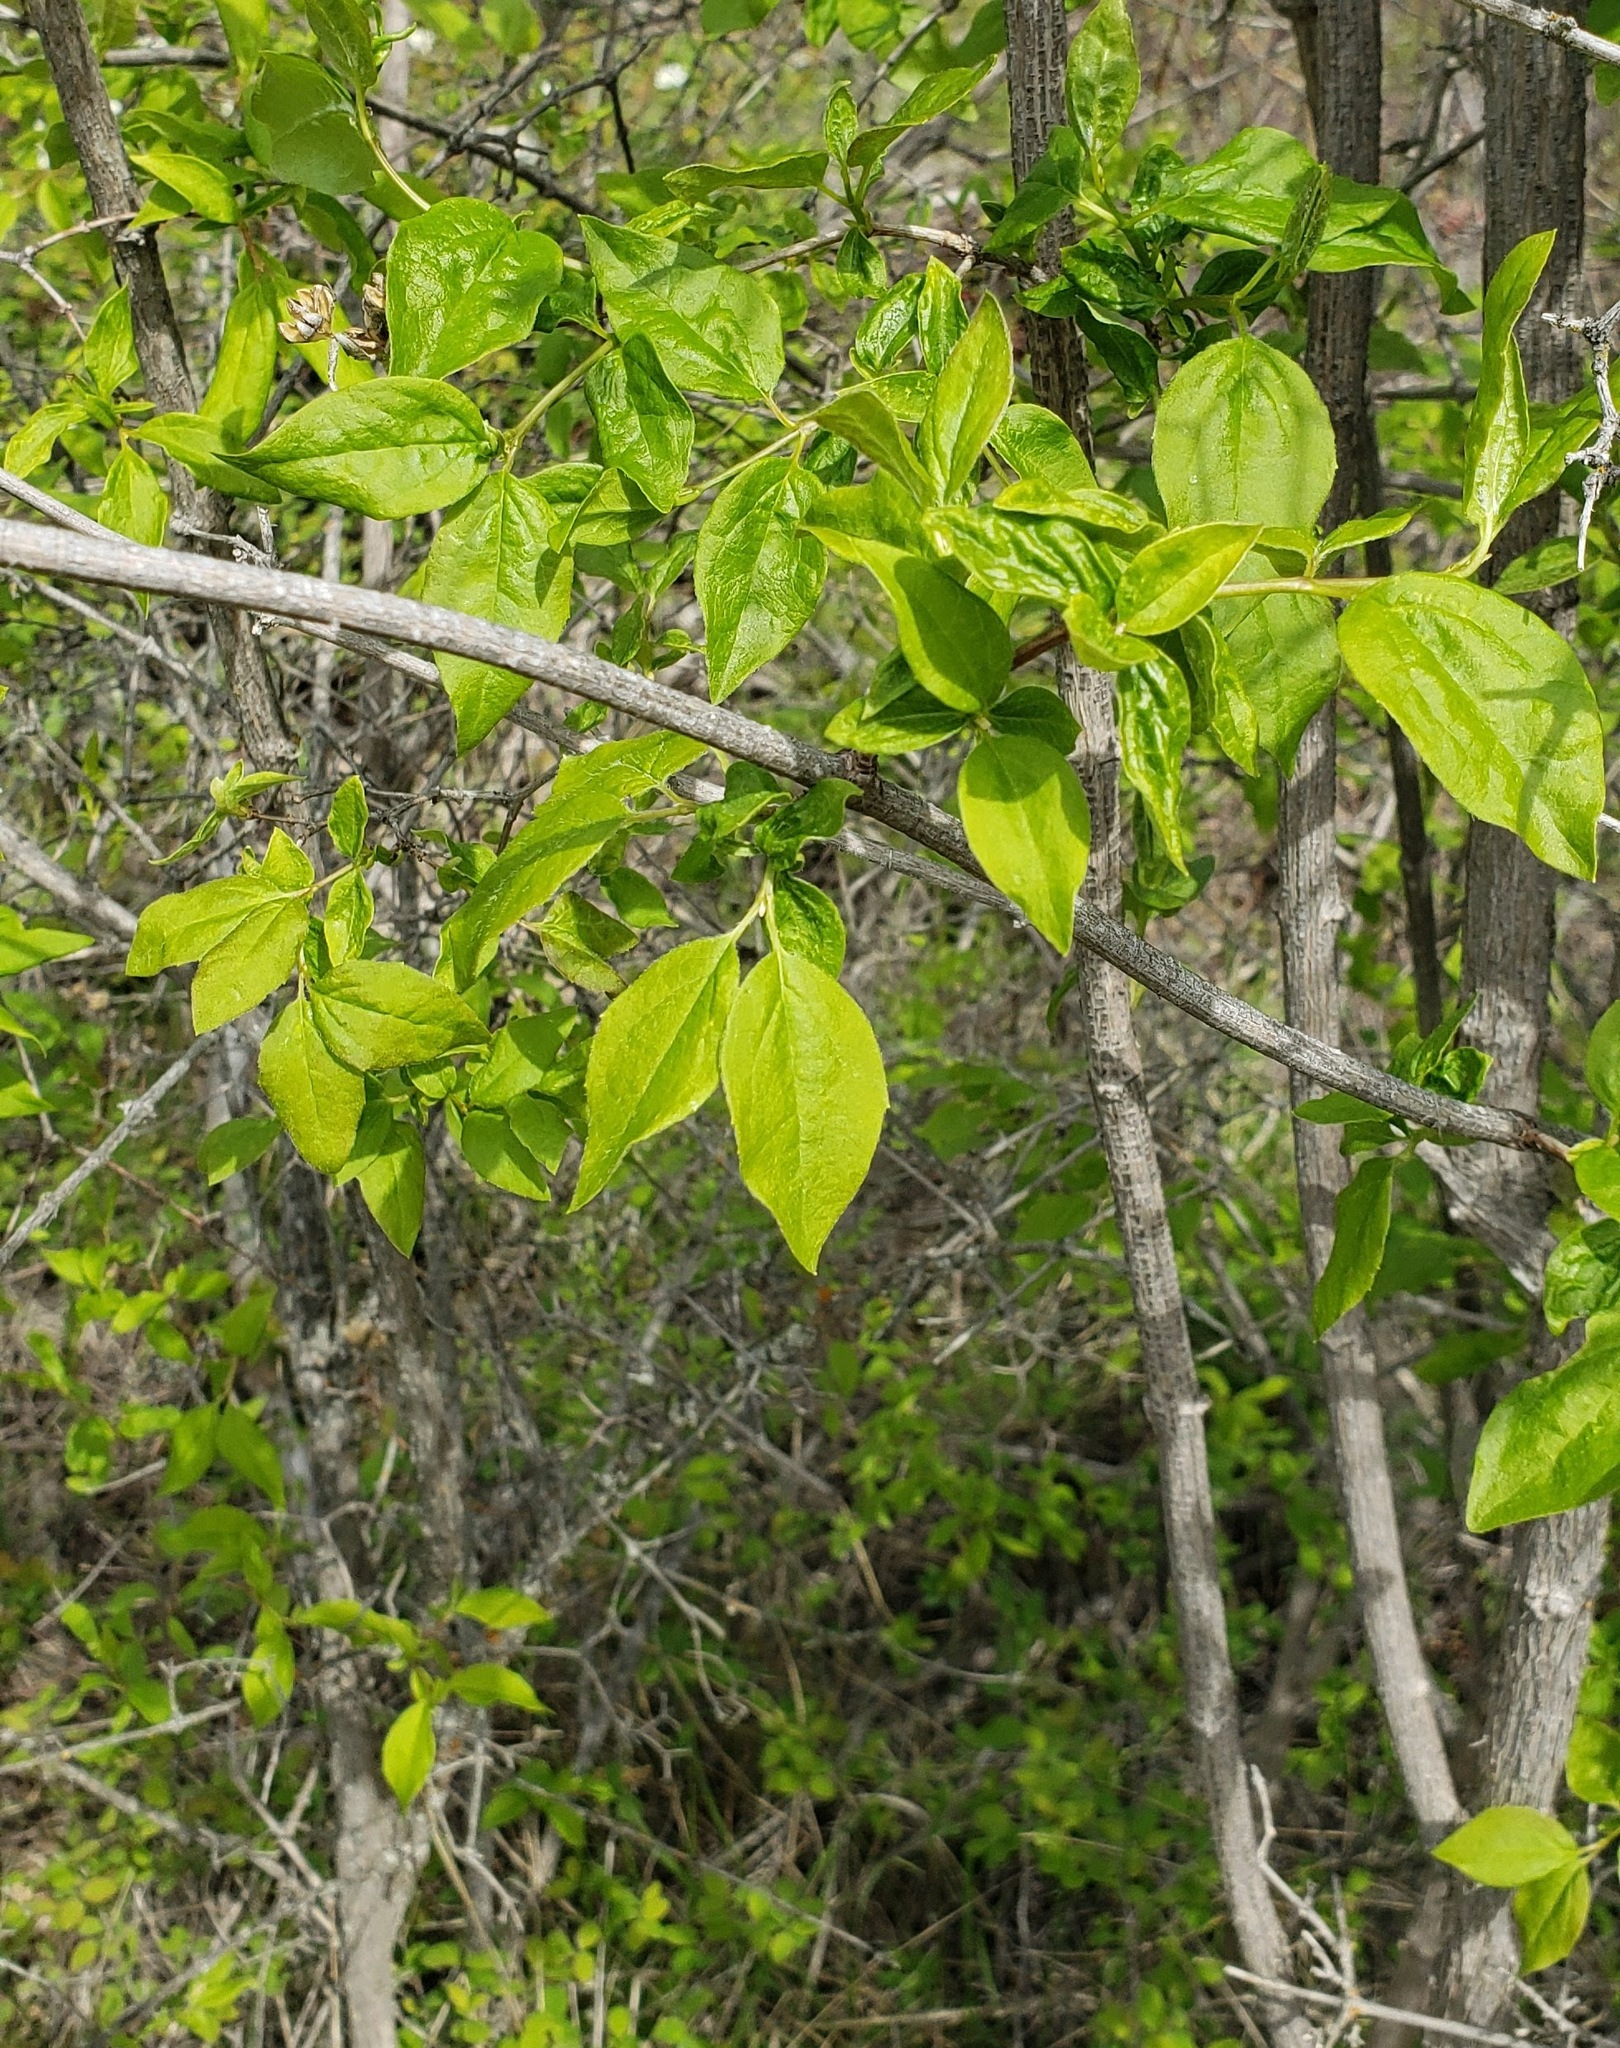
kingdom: Plantae
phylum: Tracheophyta
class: Magnoliopsida
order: Cornales
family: Hydrangeaceae
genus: Philadelphus
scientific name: Philadelphus lewisii
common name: Lewis's mock orange
